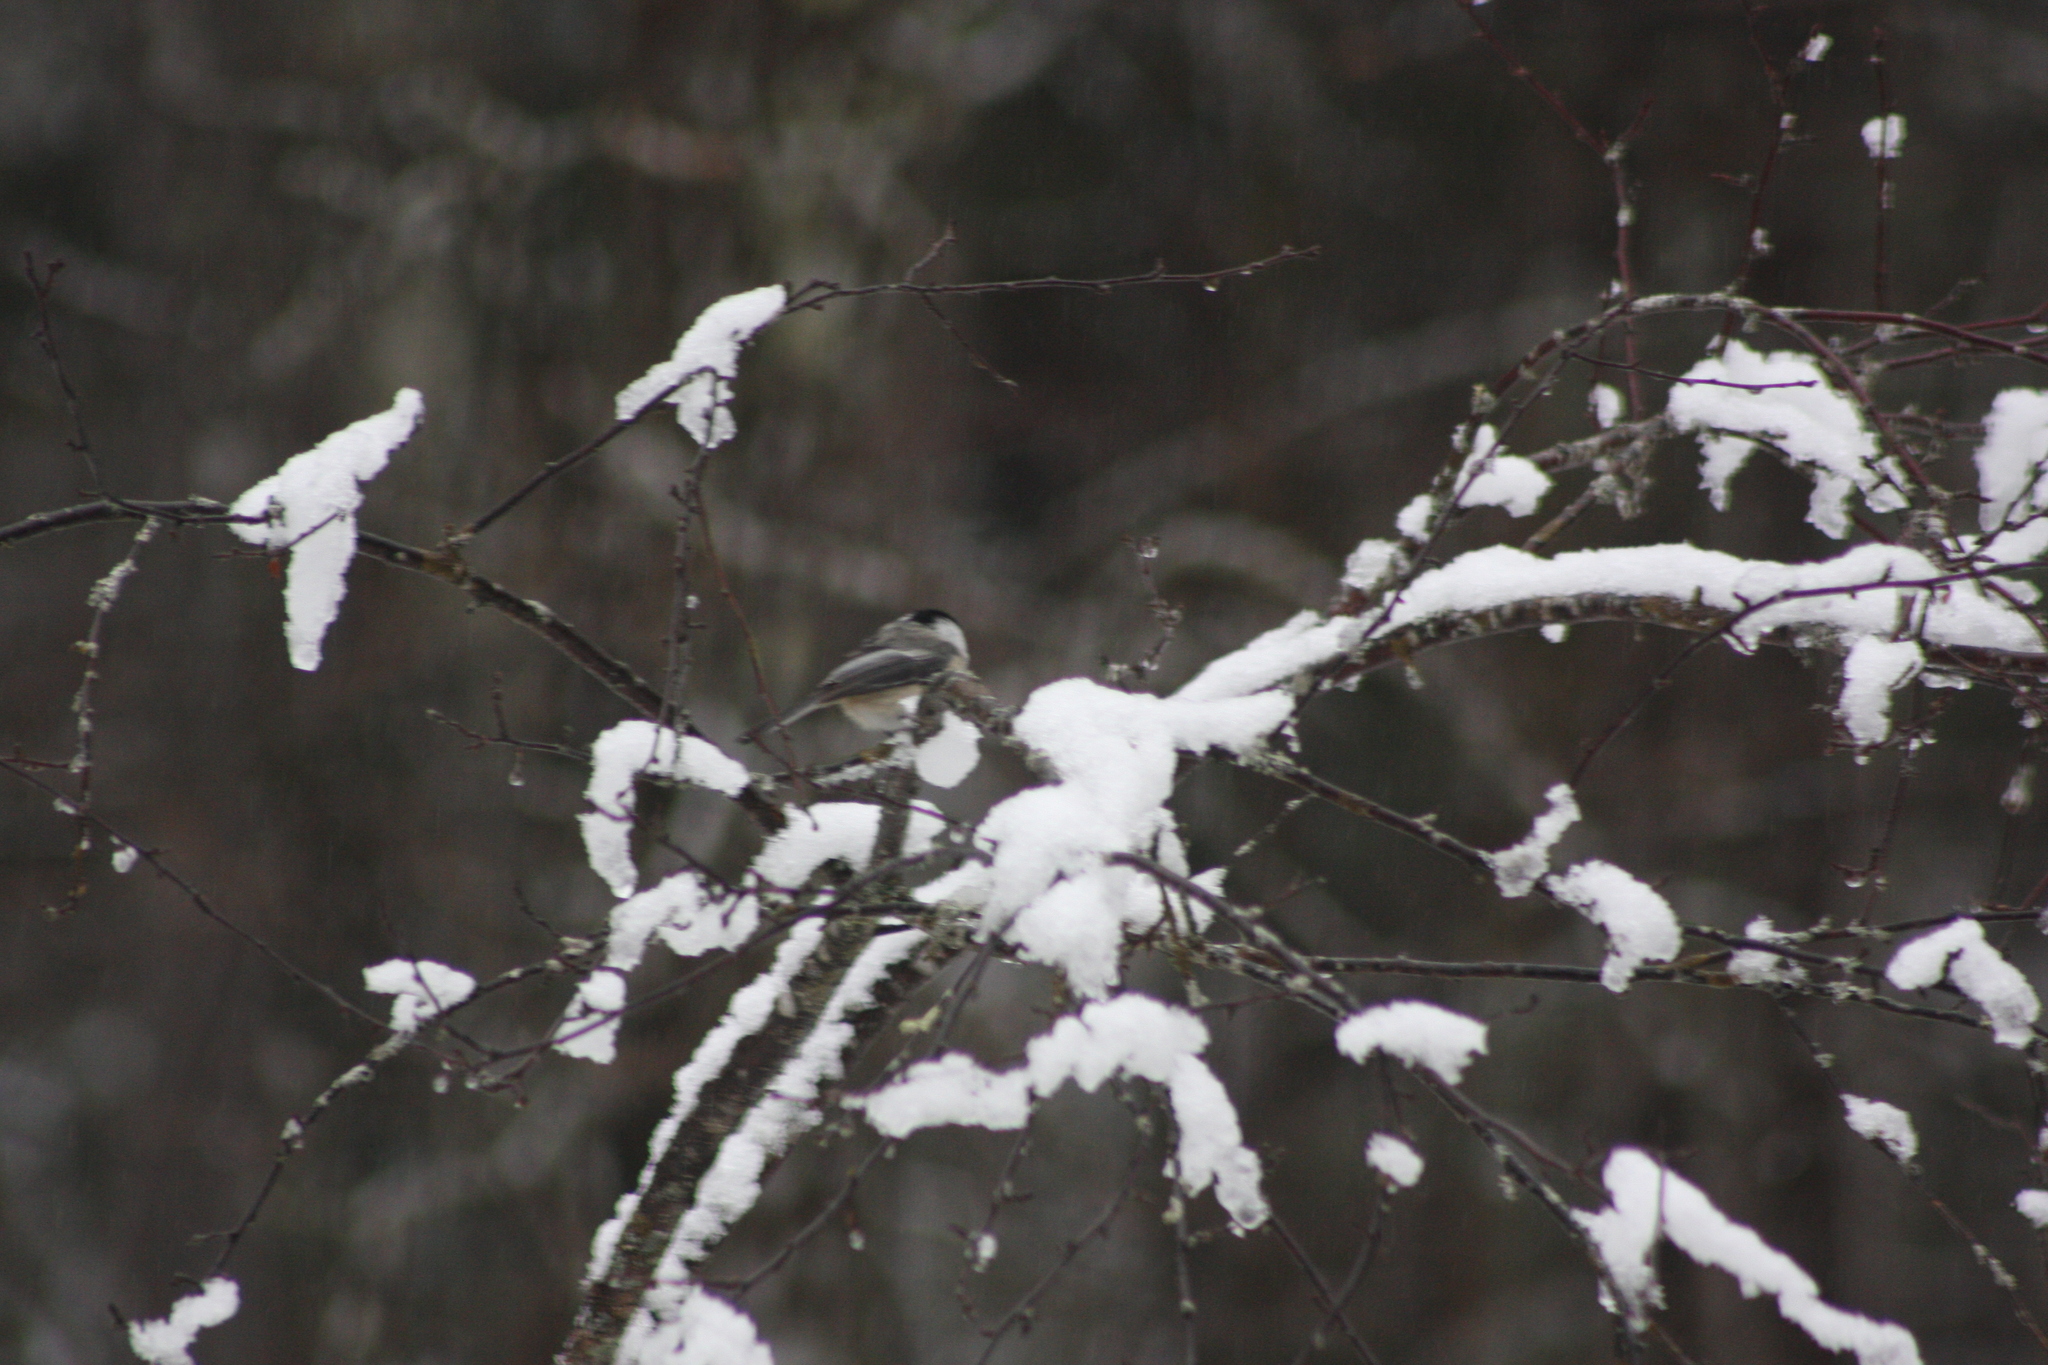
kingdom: Animalia
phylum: Chordata
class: Aves
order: Passeriformes
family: Paridae
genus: Poecile
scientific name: Poecile atricapillus
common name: Black-capped chickadee
